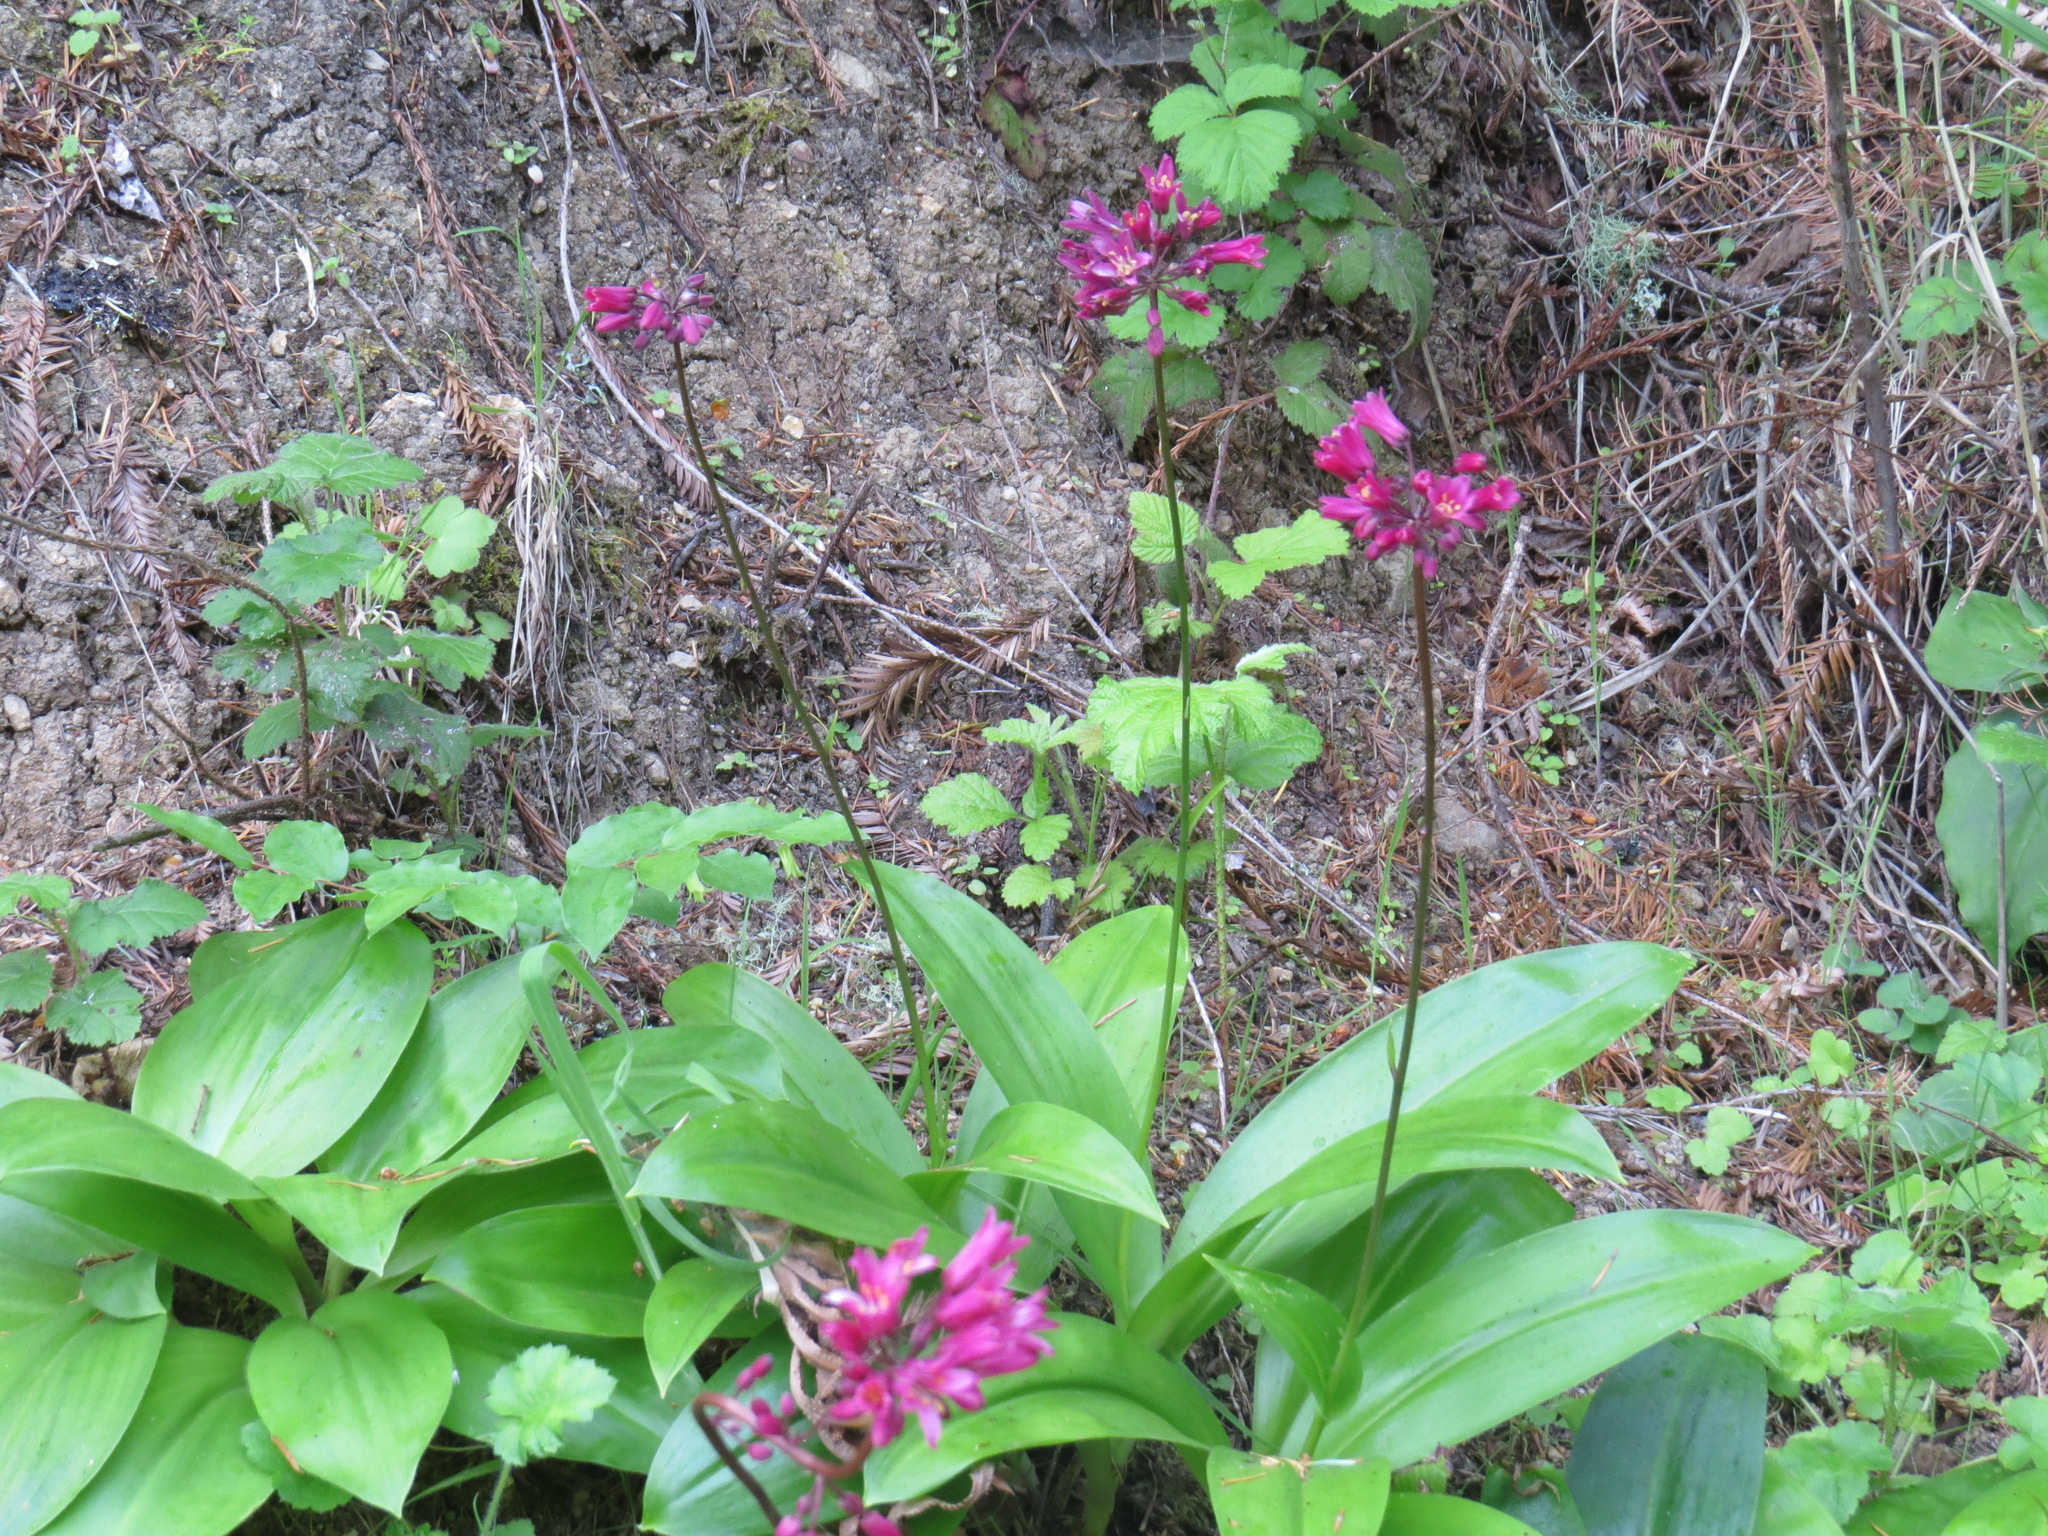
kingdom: Plantae
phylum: Tracheophyta
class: Liliopsida
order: Liliales
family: Liliaceae
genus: Clintonia
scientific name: Clintonia andrewsiana
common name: Red clintonia
